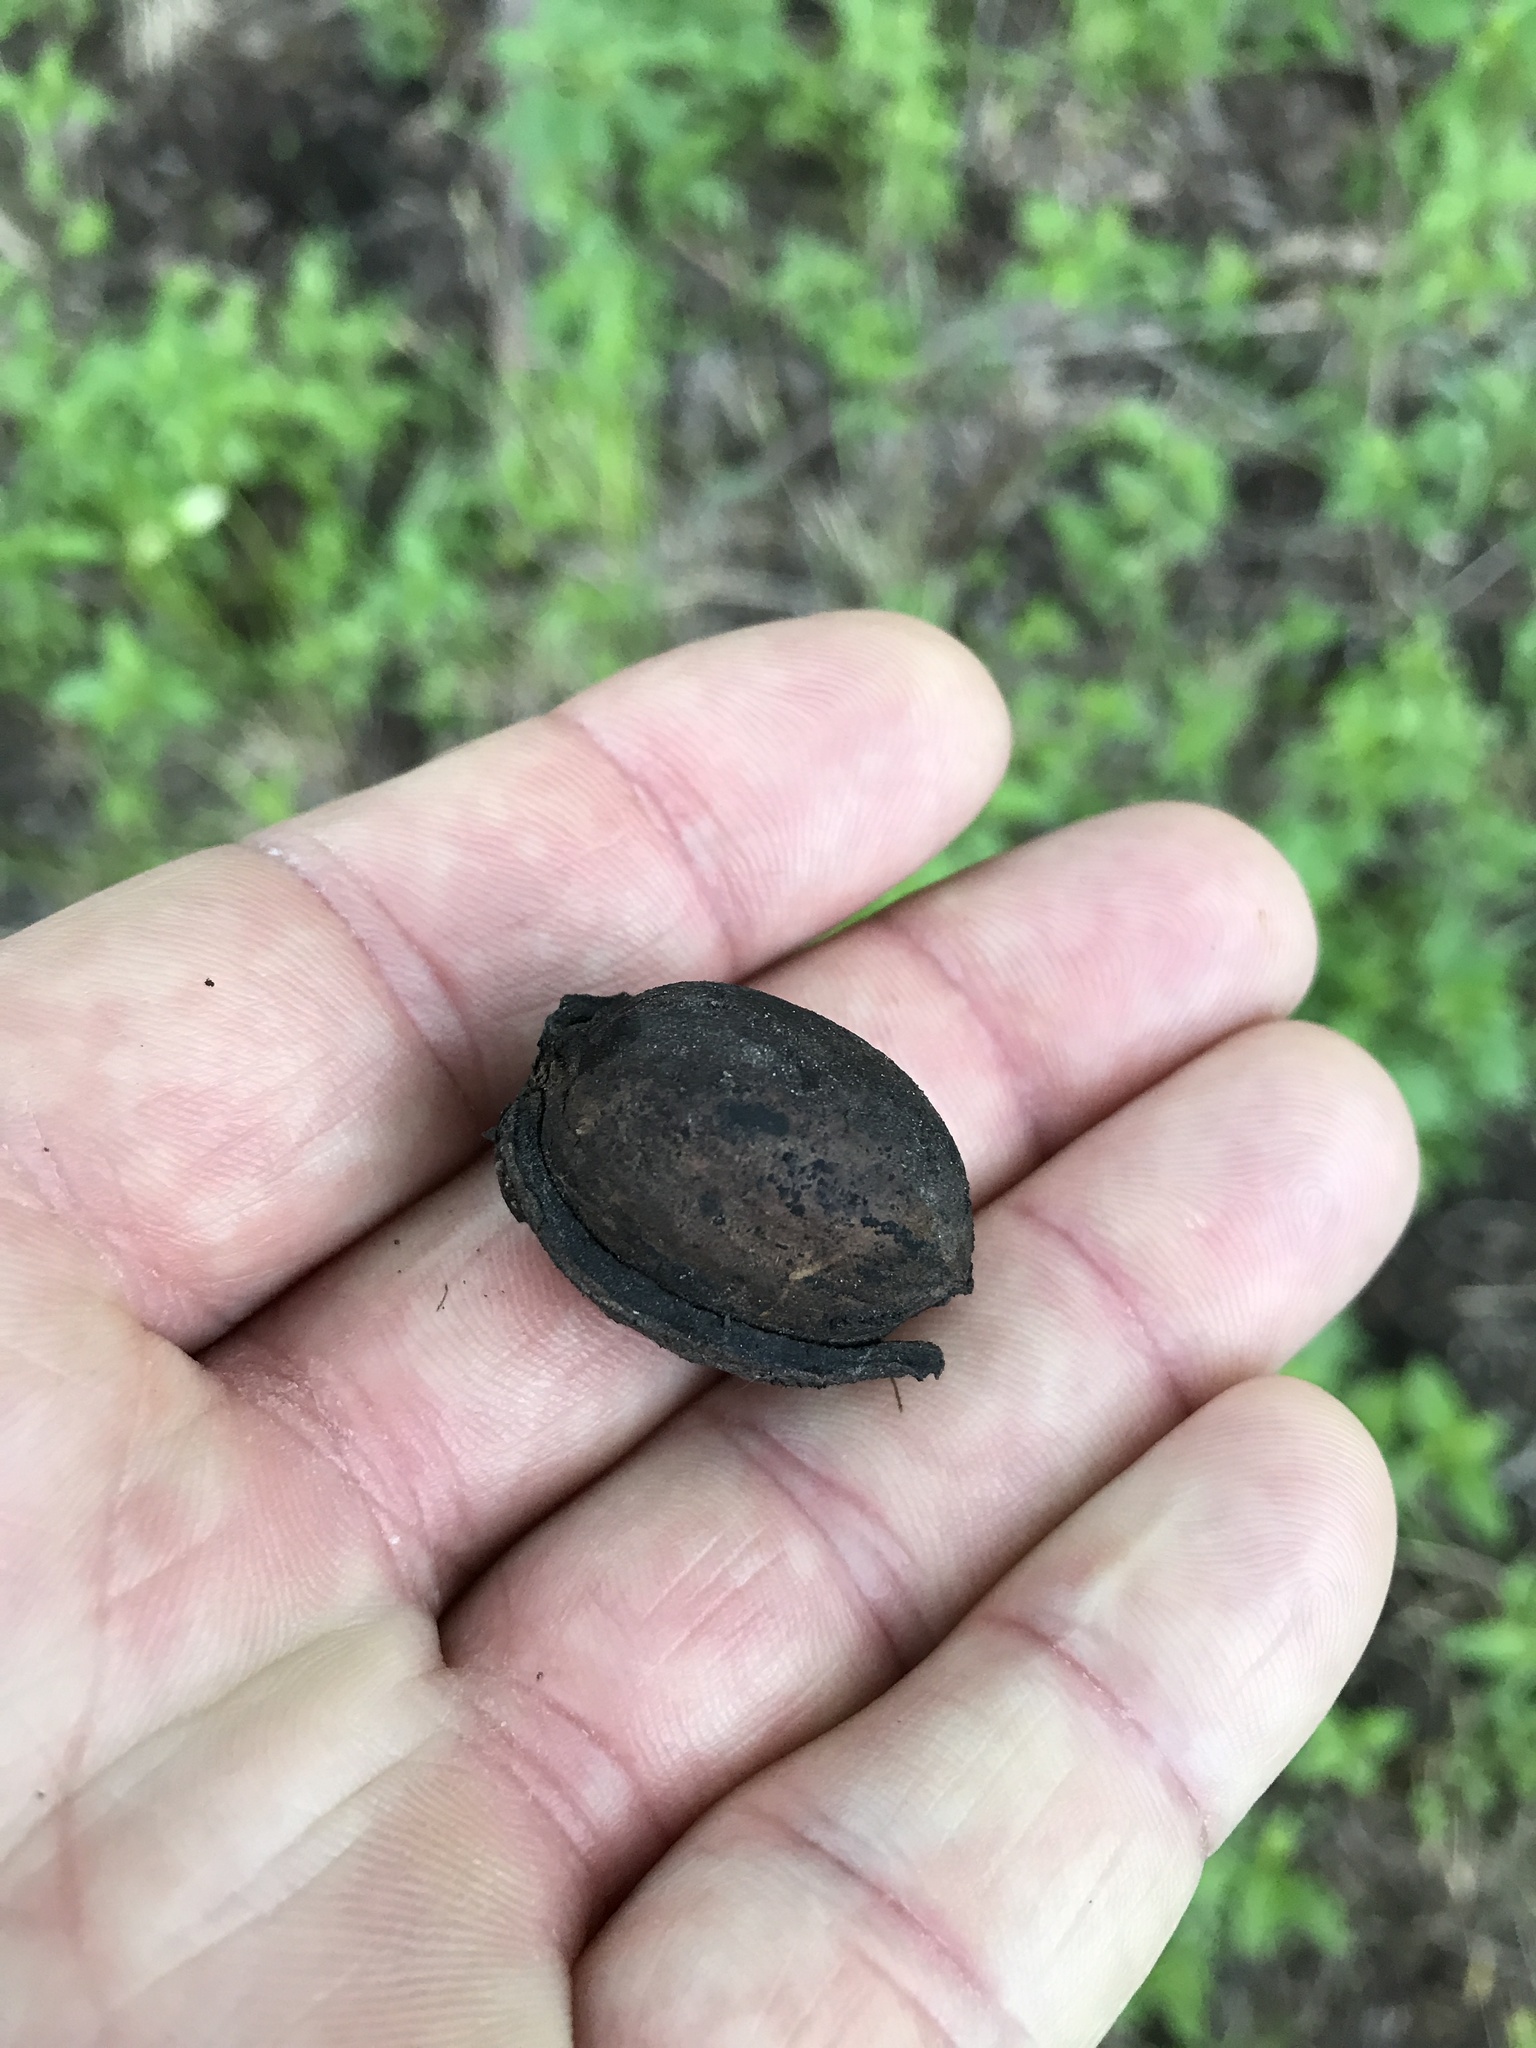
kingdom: Plantae
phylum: Tracheophyta
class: Magnoliopsida
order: Fagales
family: Juglandaceae
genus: Carya
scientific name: Carya illinoinensis
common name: Pecan
